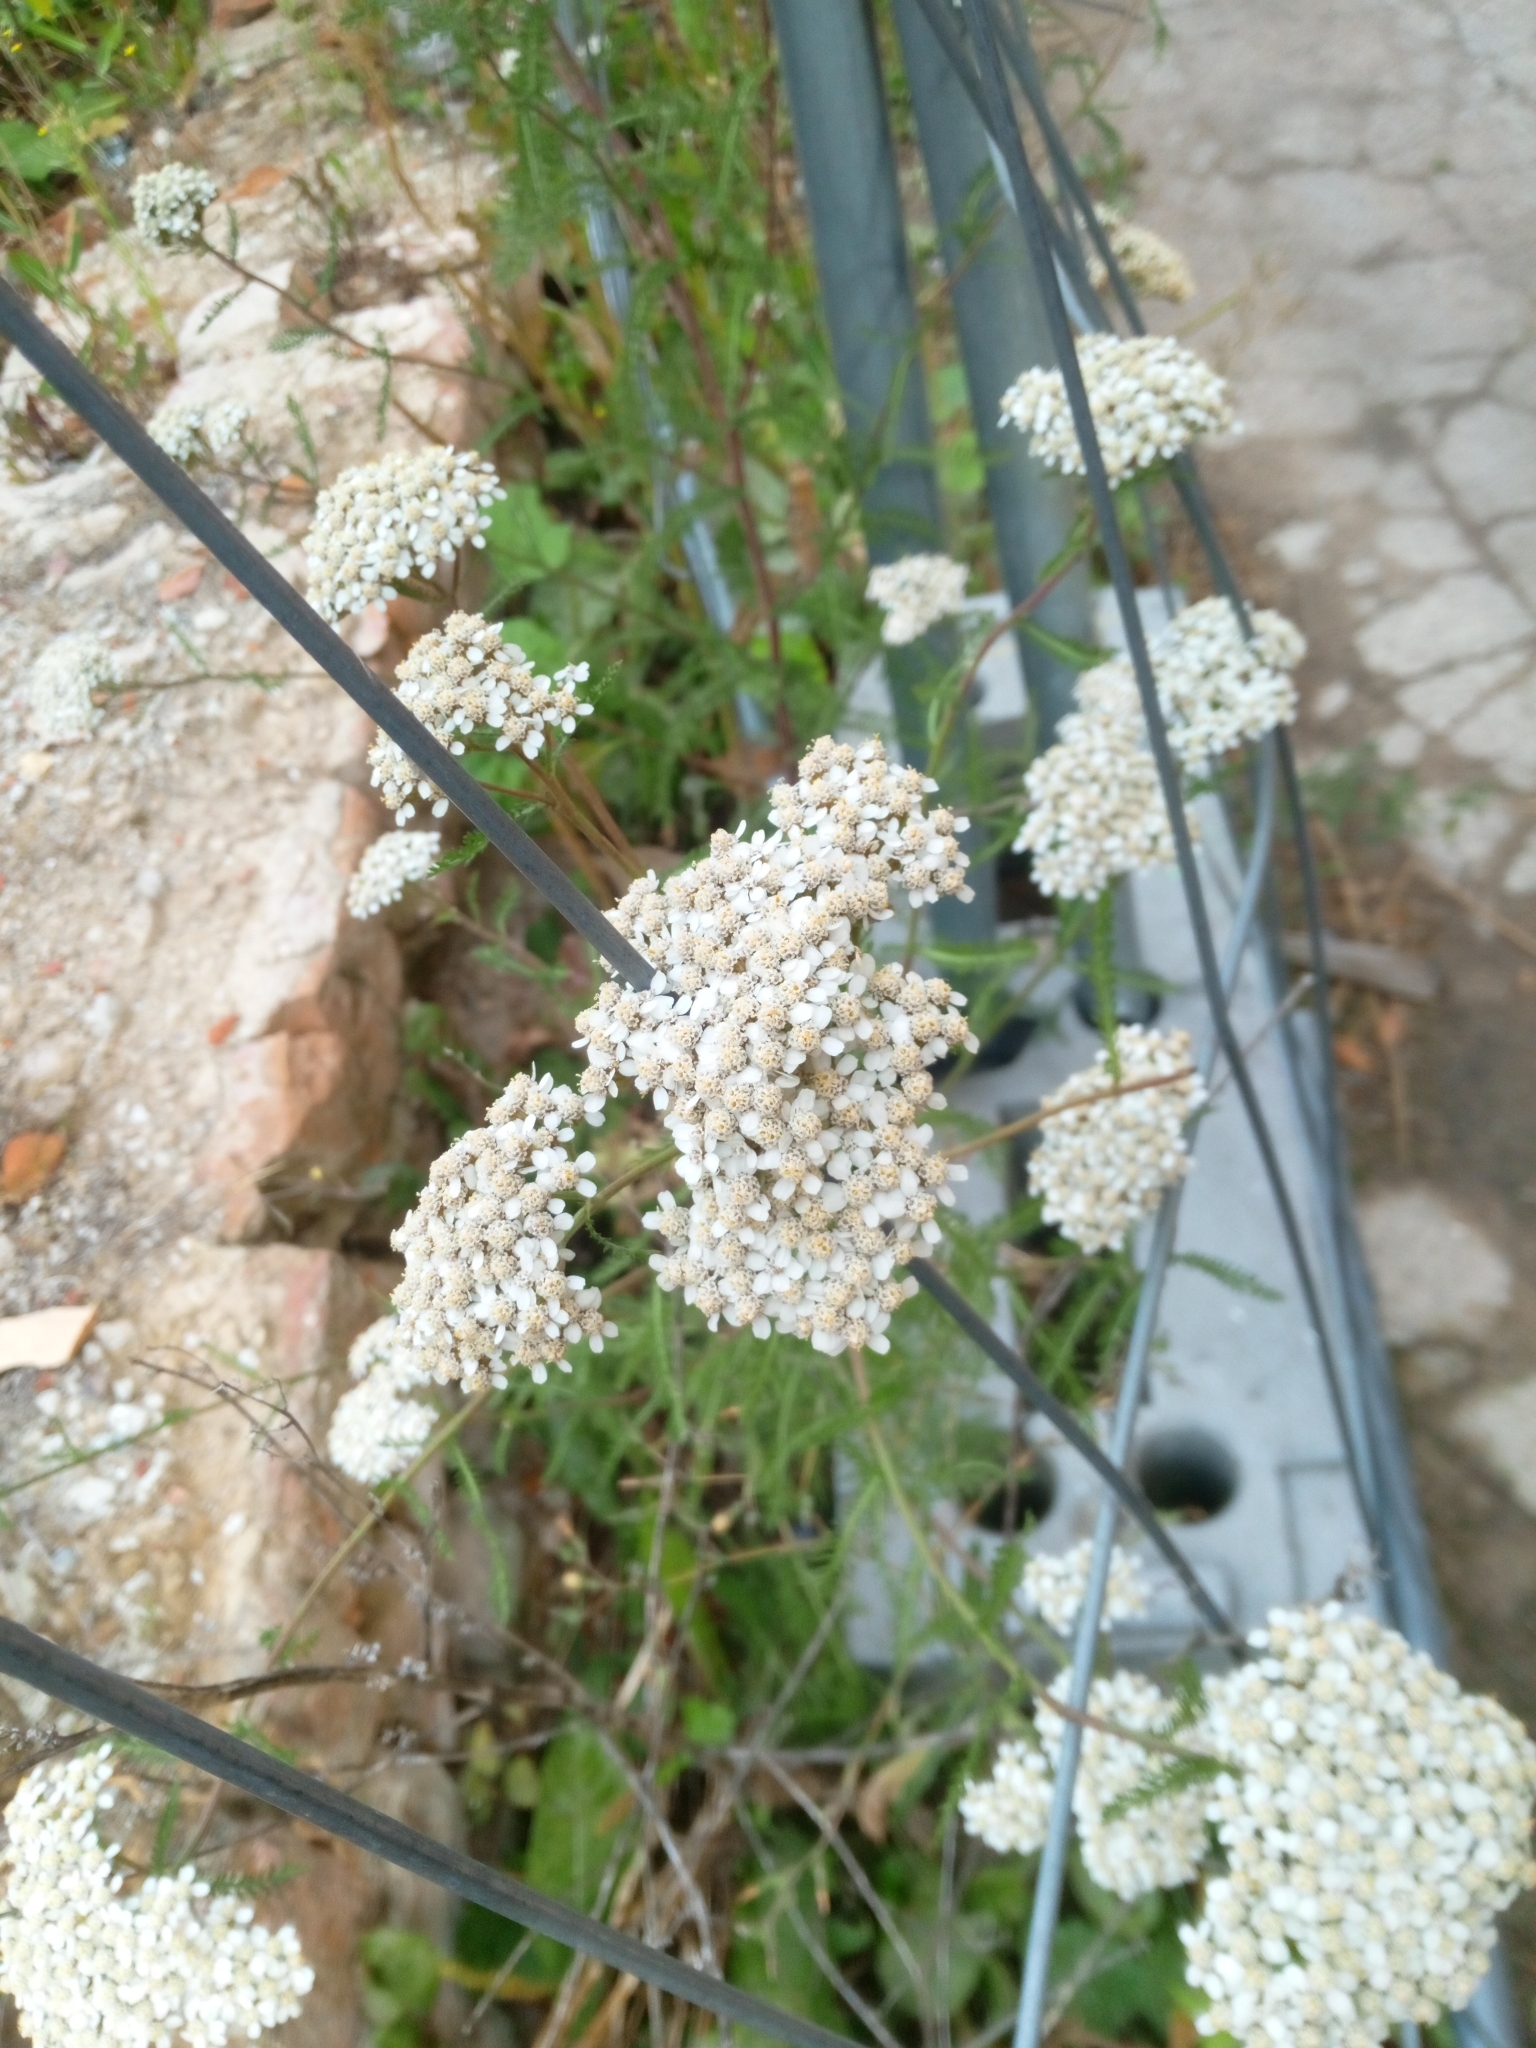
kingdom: Plantae
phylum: Tracheophyta
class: Magnoliopsida
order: Asterales
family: Asteraceae
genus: Achillea
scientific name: Achillea millefolium
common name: Yarrow
